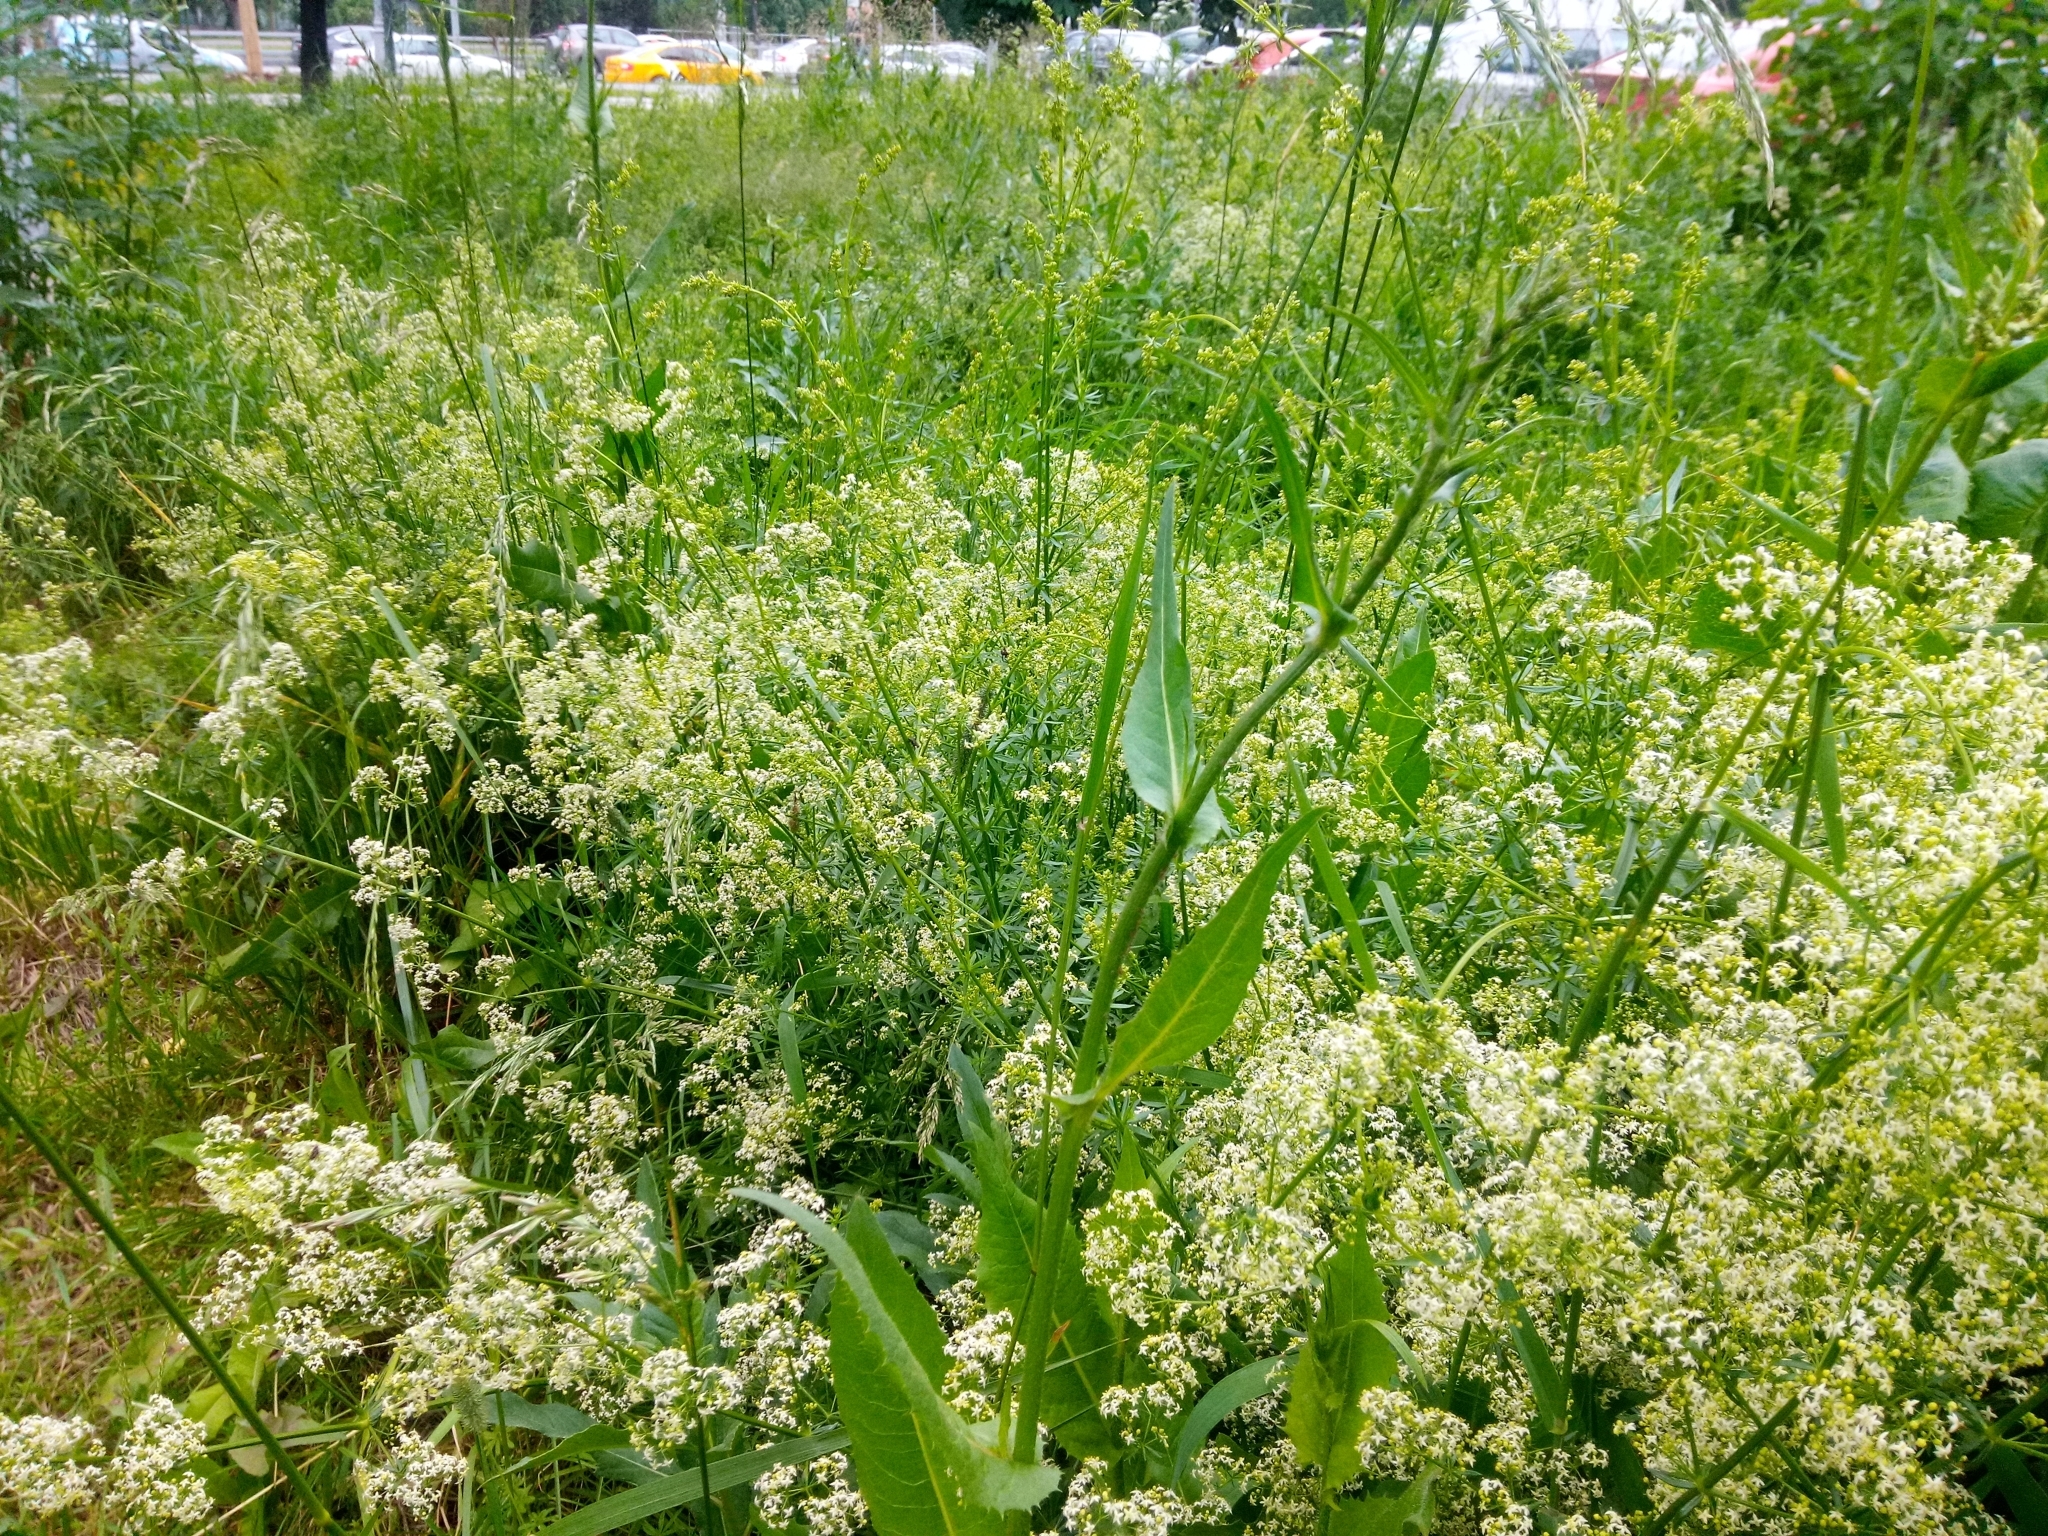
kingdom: Plantae
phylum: Tracheophyta
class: Magnoliopsida
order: Gentianales
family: Rubiaceae
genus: Galium
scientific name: Galium mollugo
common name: Hedge bedstraw
